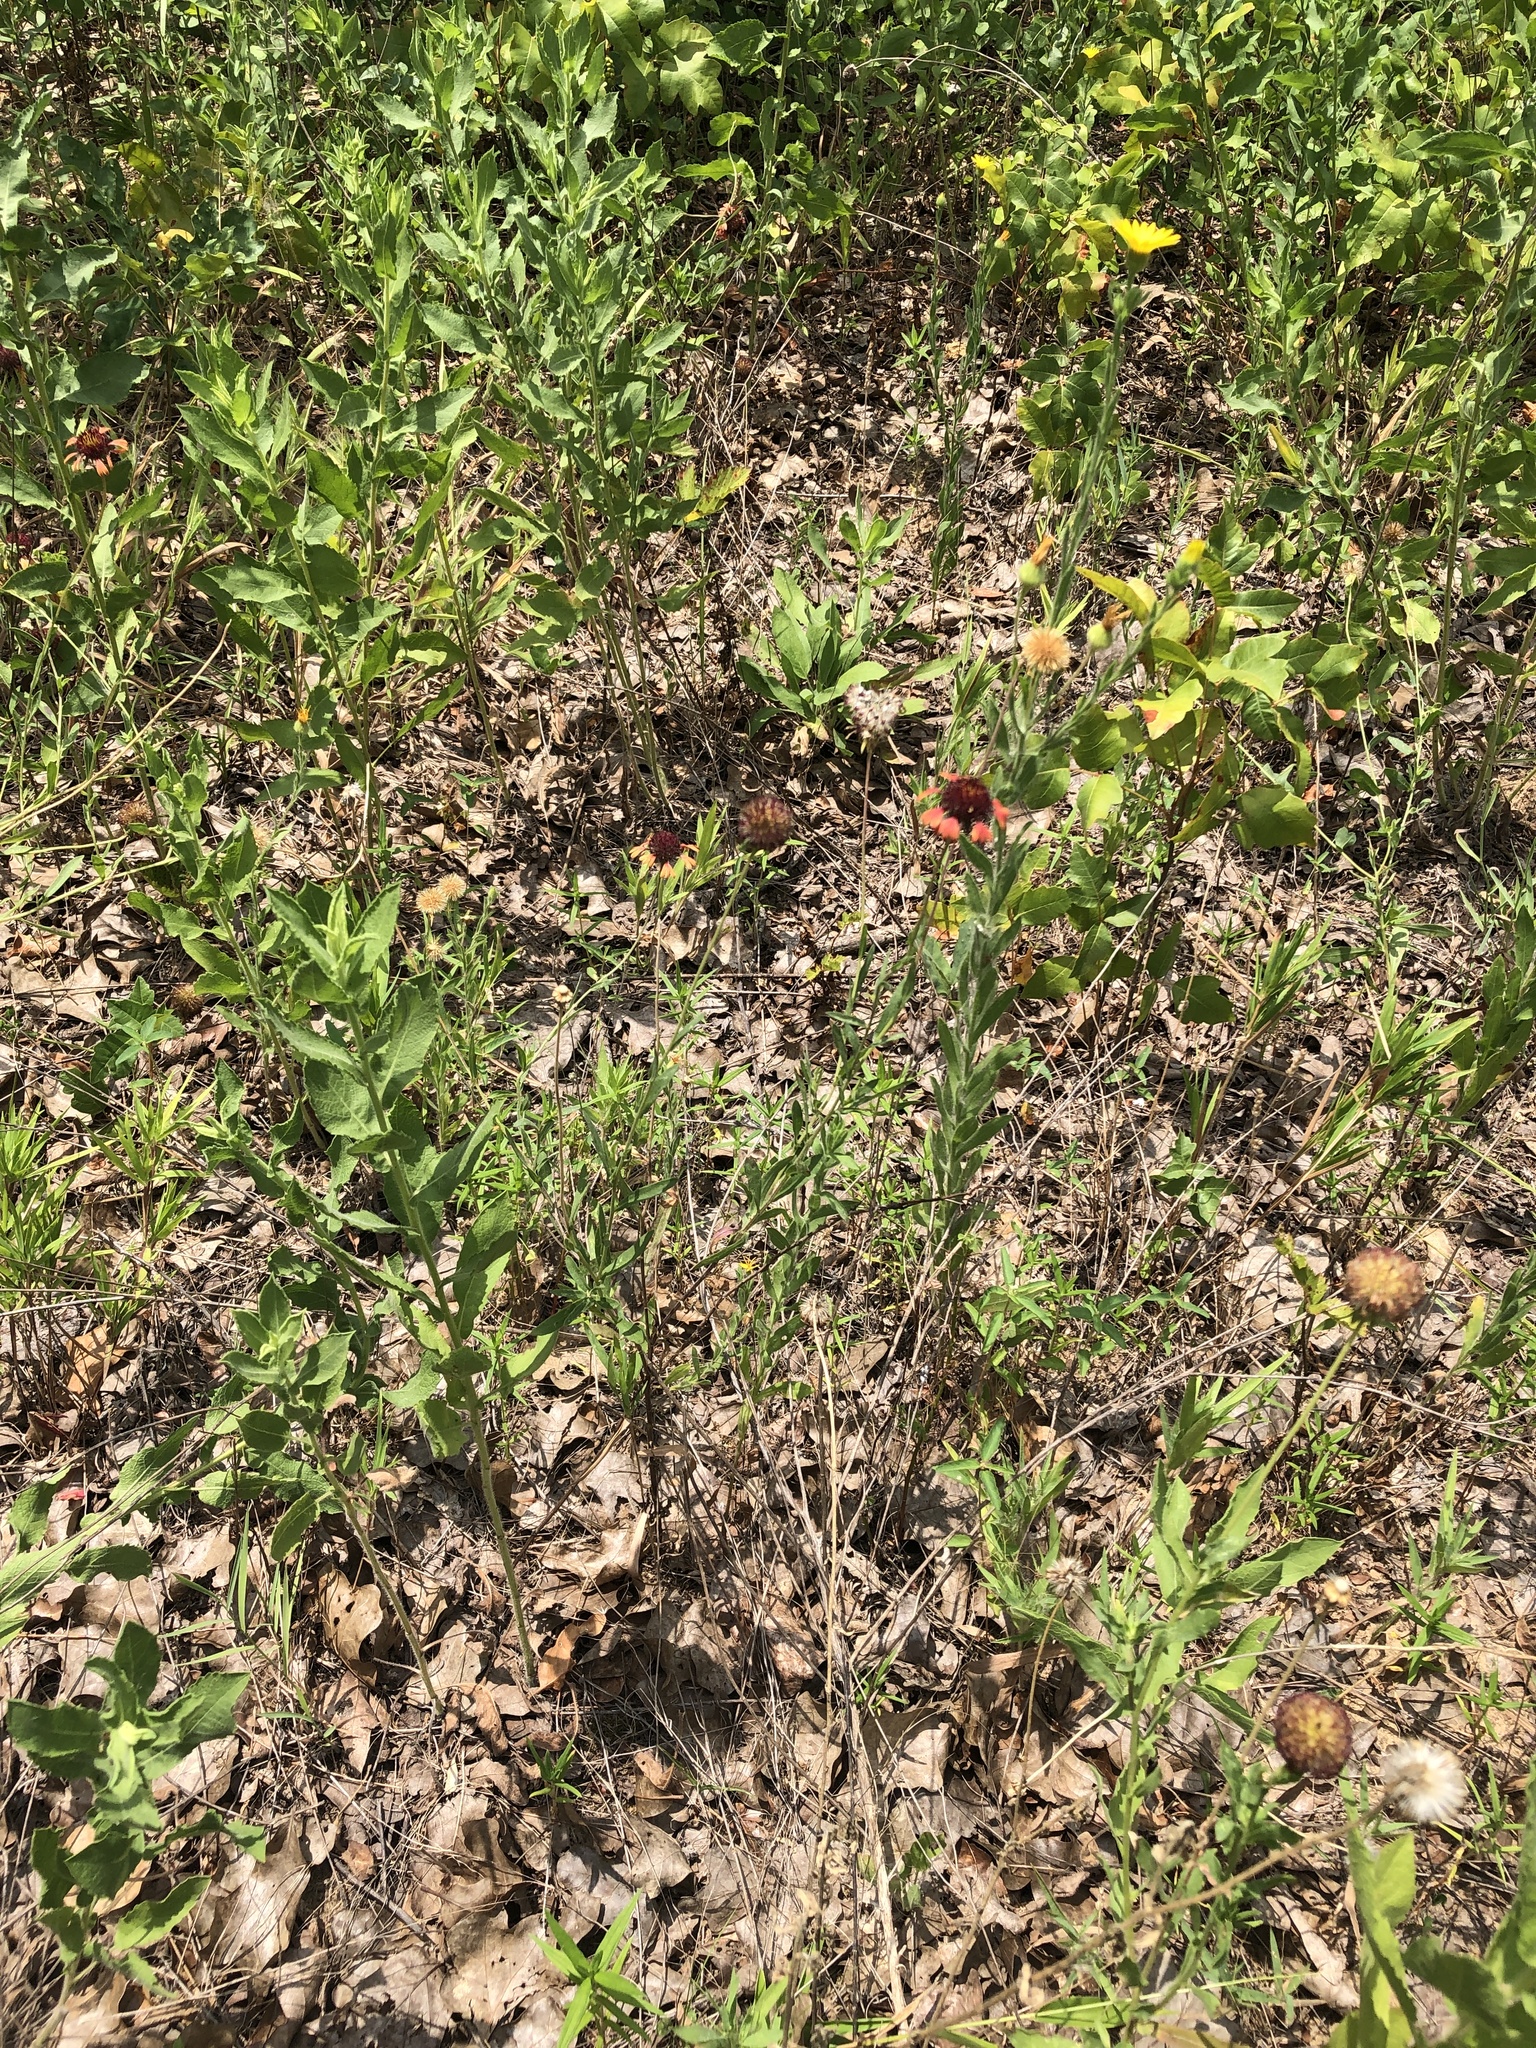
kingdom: Plantae
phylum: Tracheophyta
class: Magnoliopsida
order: Asterales
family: Asteraceae
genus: Gaillardia
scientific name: Gaillardia aestivalis
